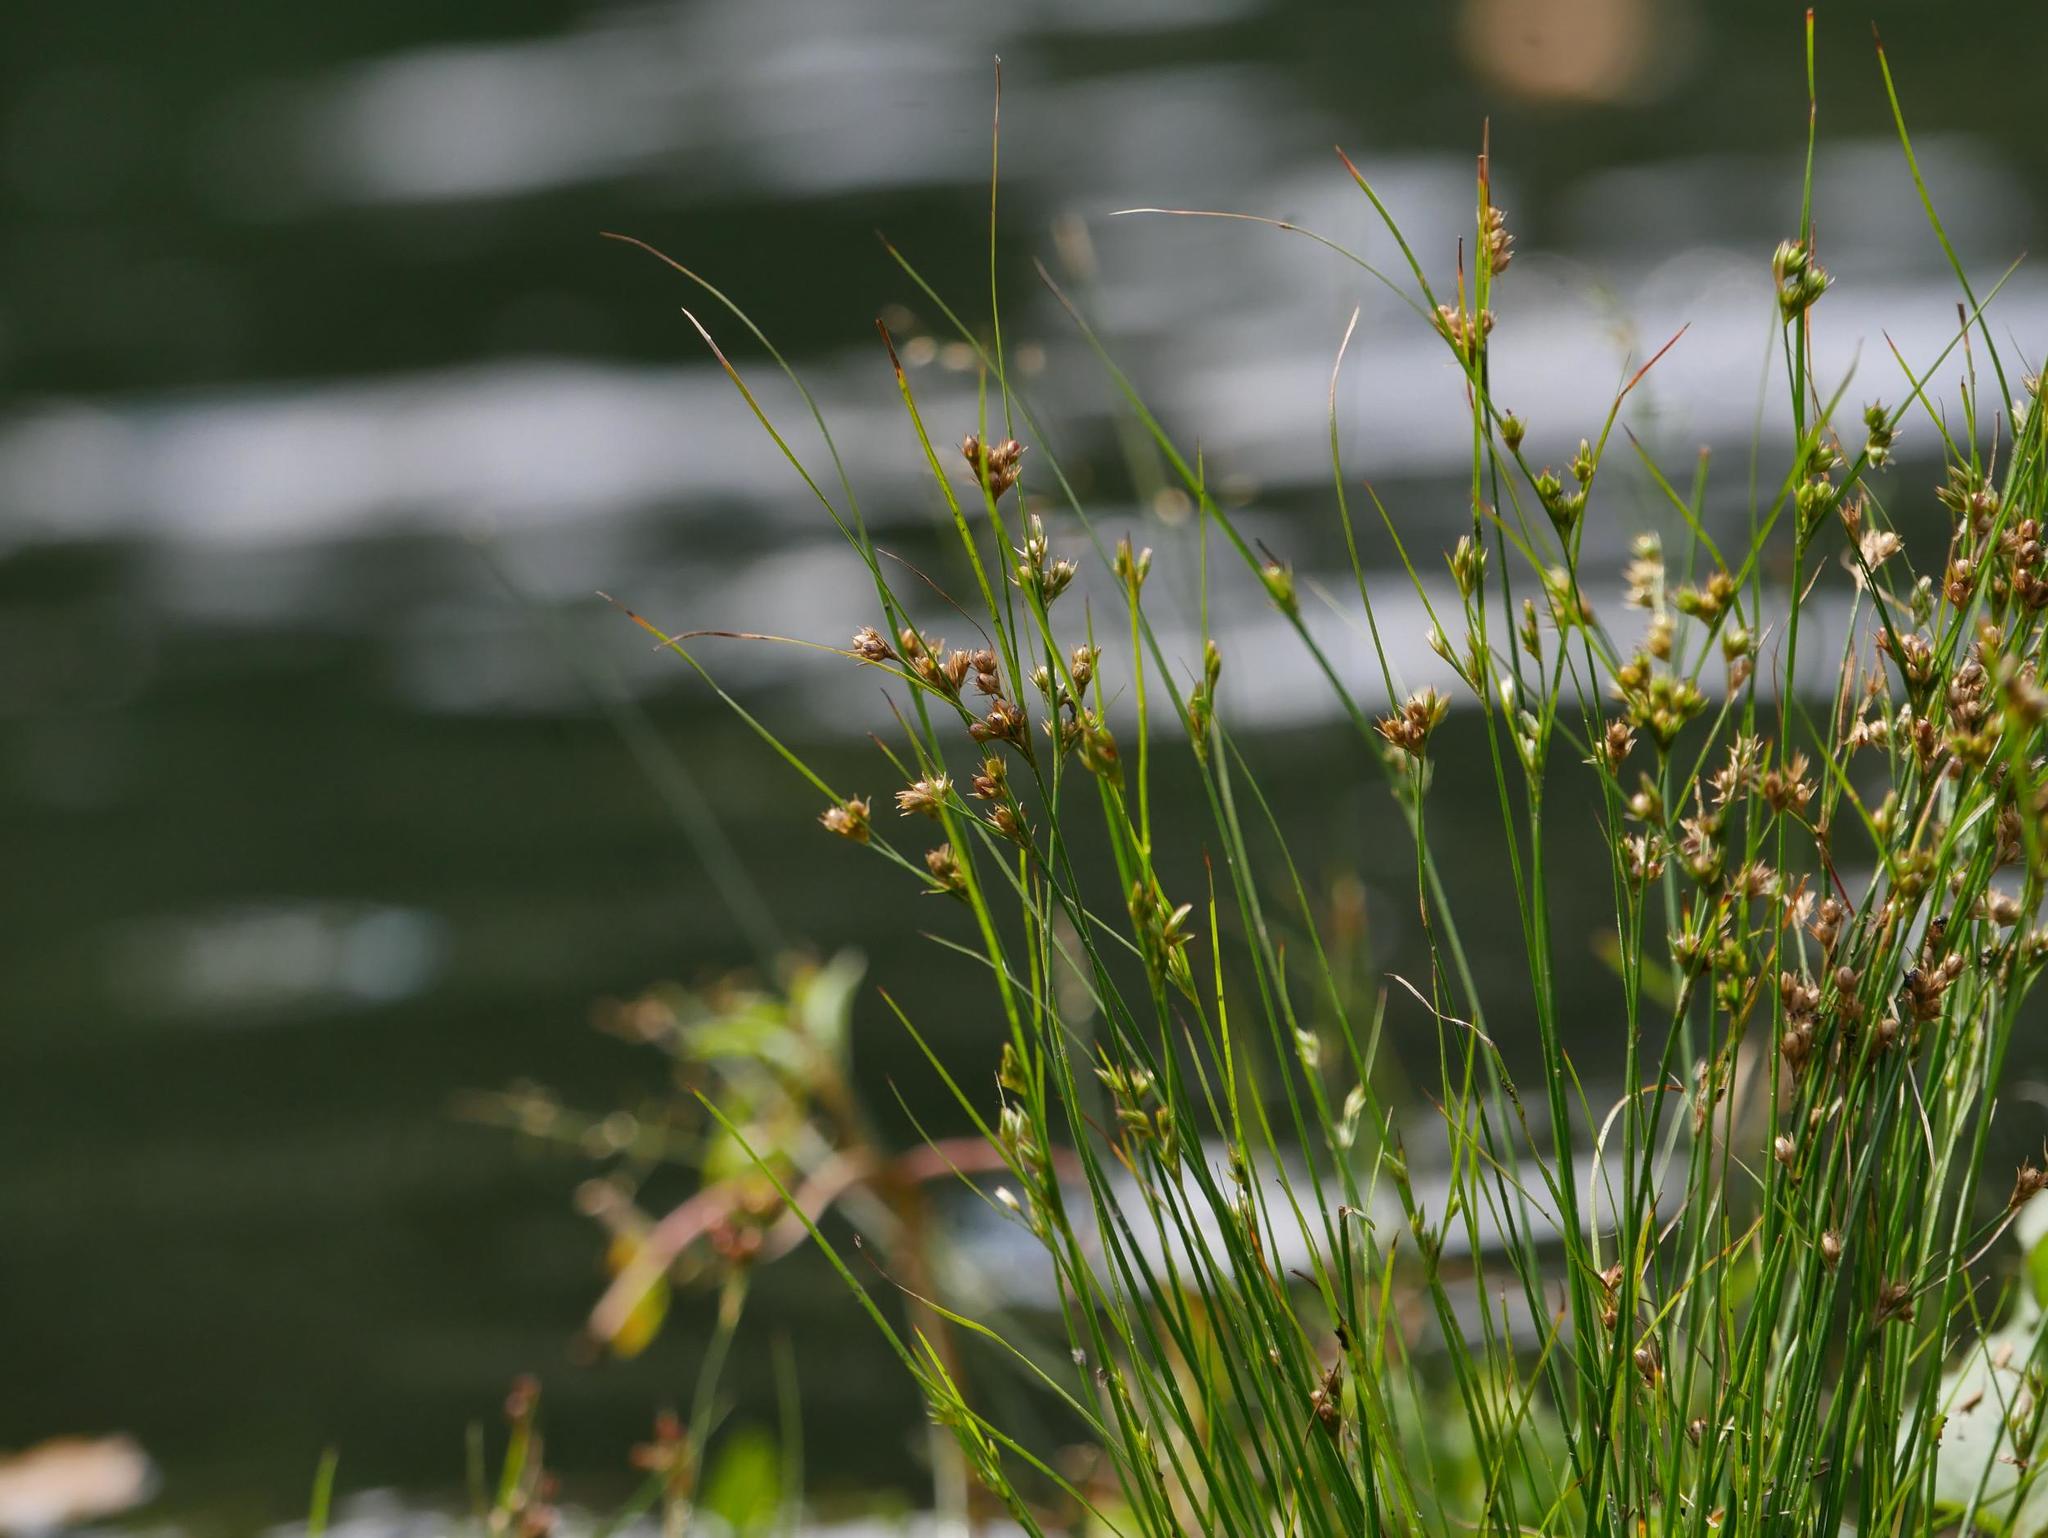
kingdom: Plantae
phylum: Tracheophyta
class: Liliopsida
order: Poales
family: Juncaceae
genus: Juncus
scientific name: Juncus tenuis
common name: Slender rush
